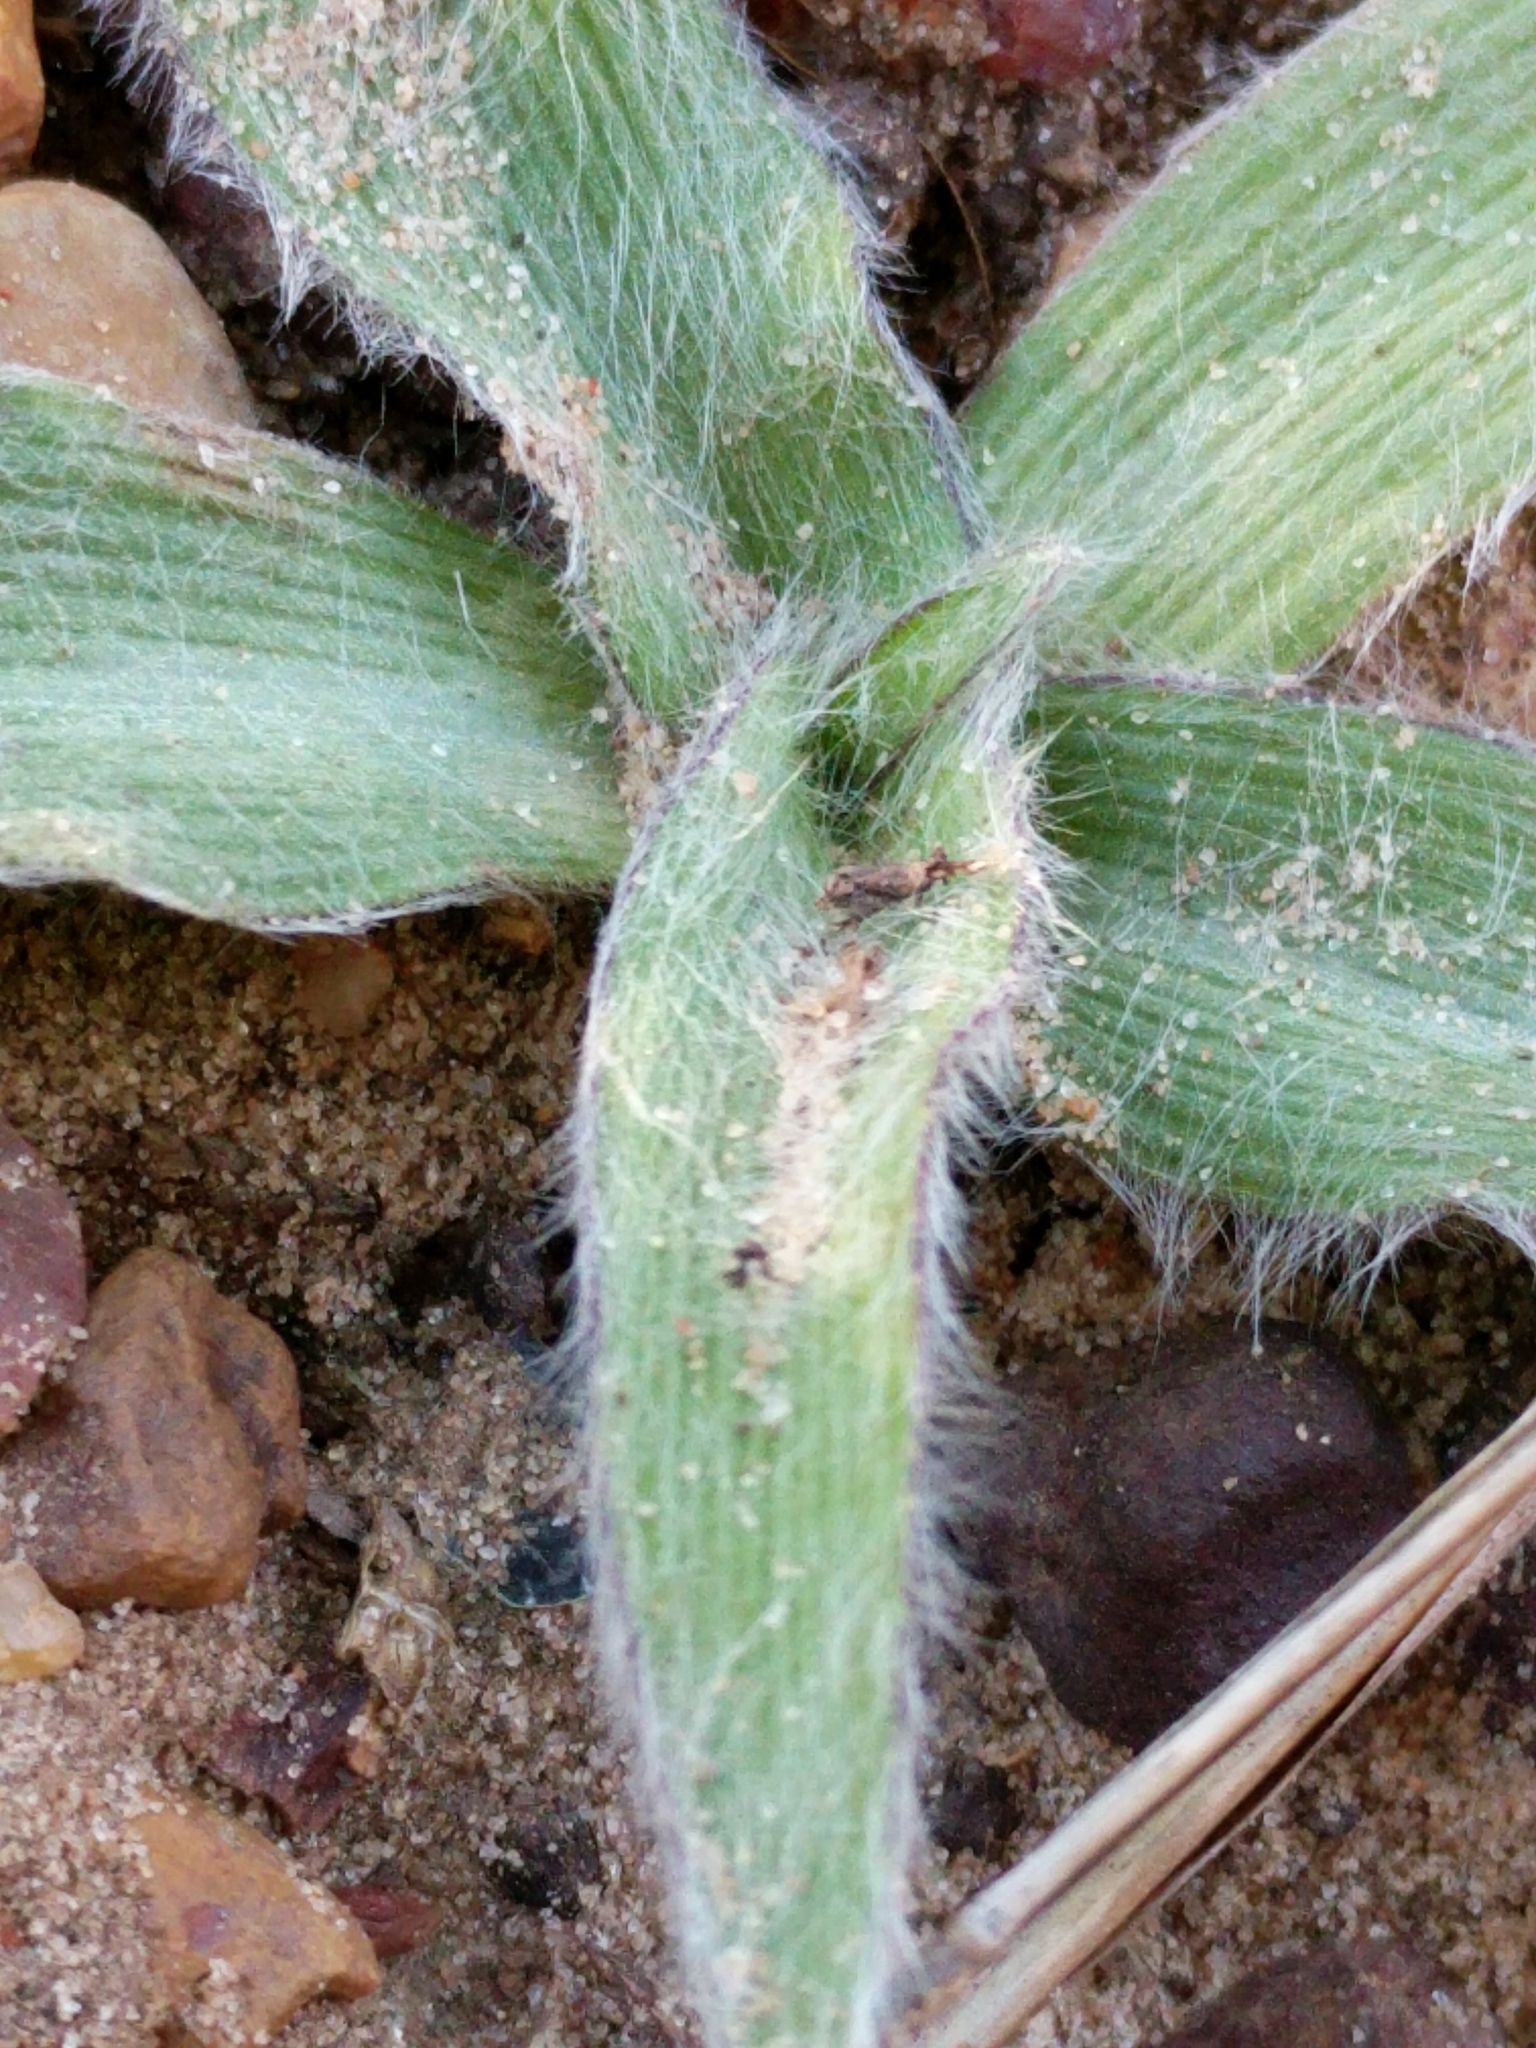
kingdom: Plantae
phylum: Tracheophyta
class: Liliopsida
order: Commelinales
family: Commelinaceae
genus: Tradescantia
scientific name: Tradescantia subacaulis
